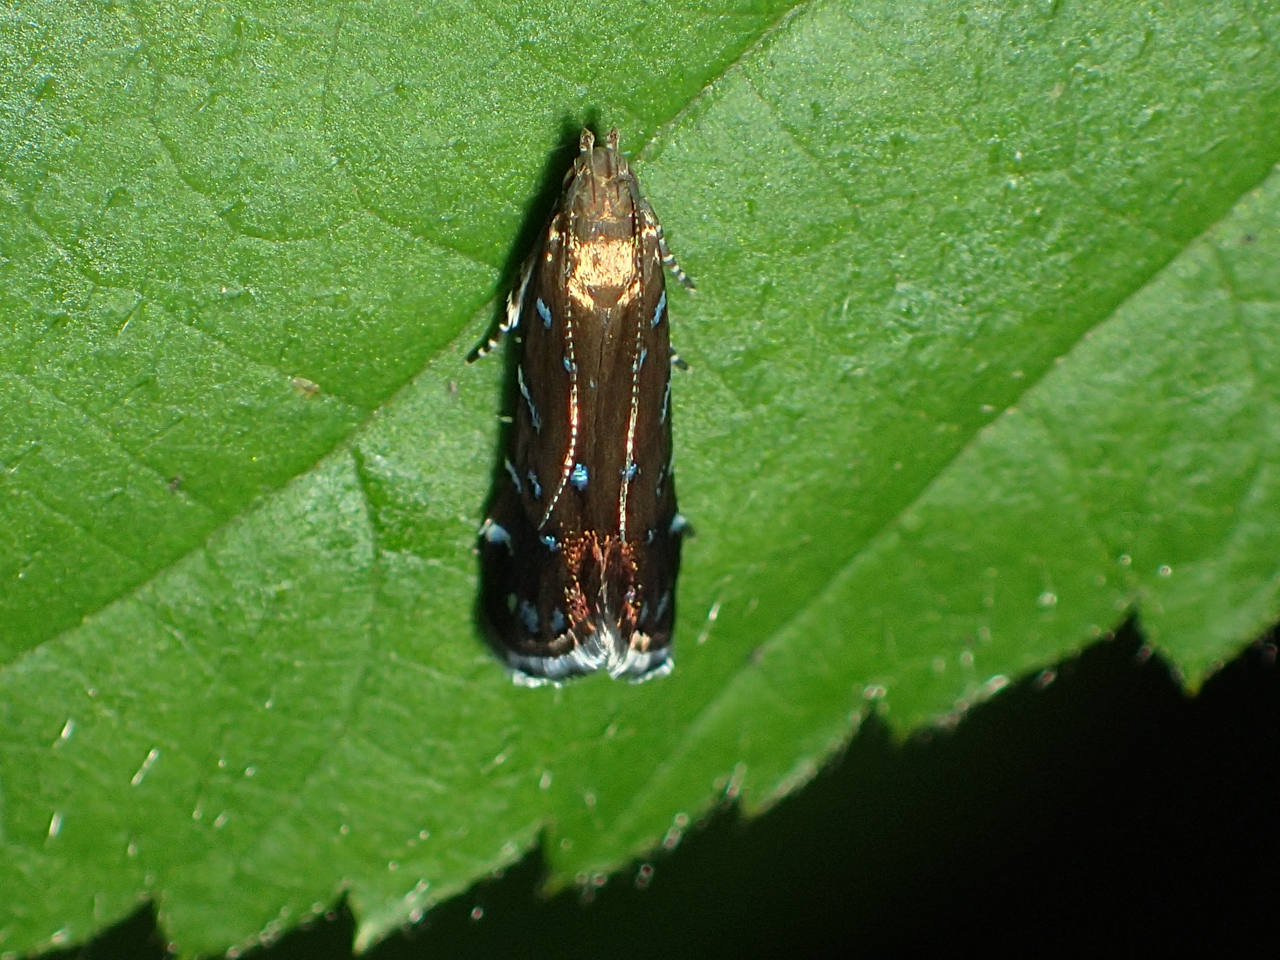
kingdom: Animalia
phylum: Arthropoda
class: Insecta
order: Lepidoptera
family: Gelechiidae
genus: Strobisia
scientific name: Strobisia iridipennella
